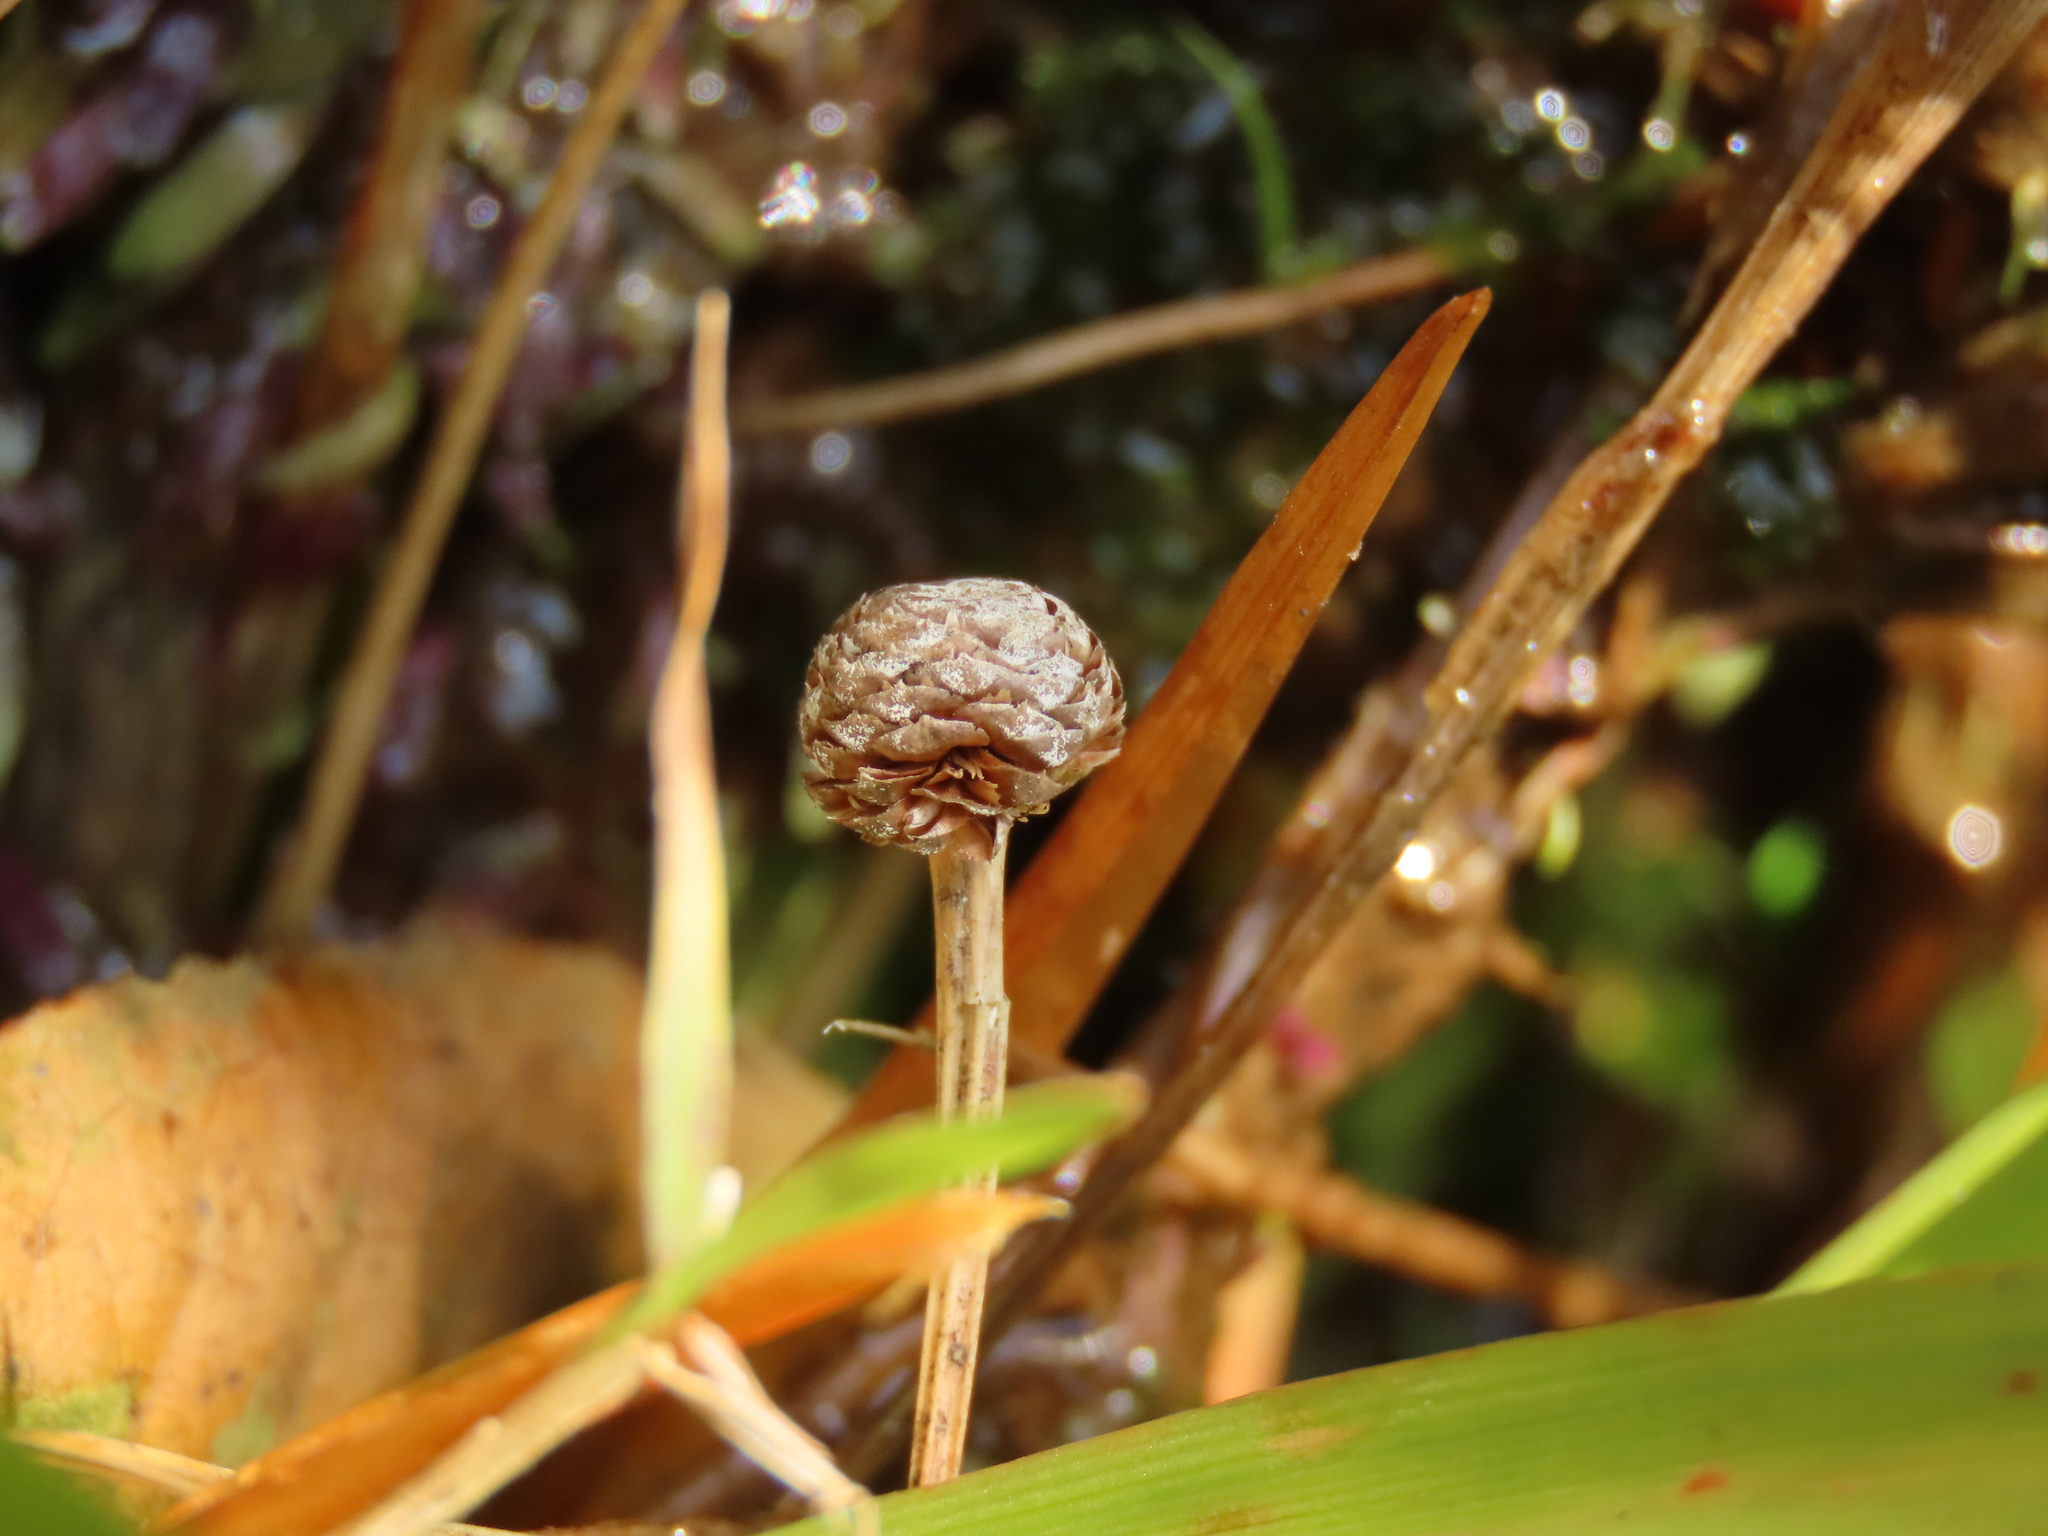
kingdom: Plantae
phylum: Tracheophyta
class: Liliopsida
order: Poales
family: Eriocaulaceae
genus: Eriocaulon
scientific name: Eriocaulon sexangulare
